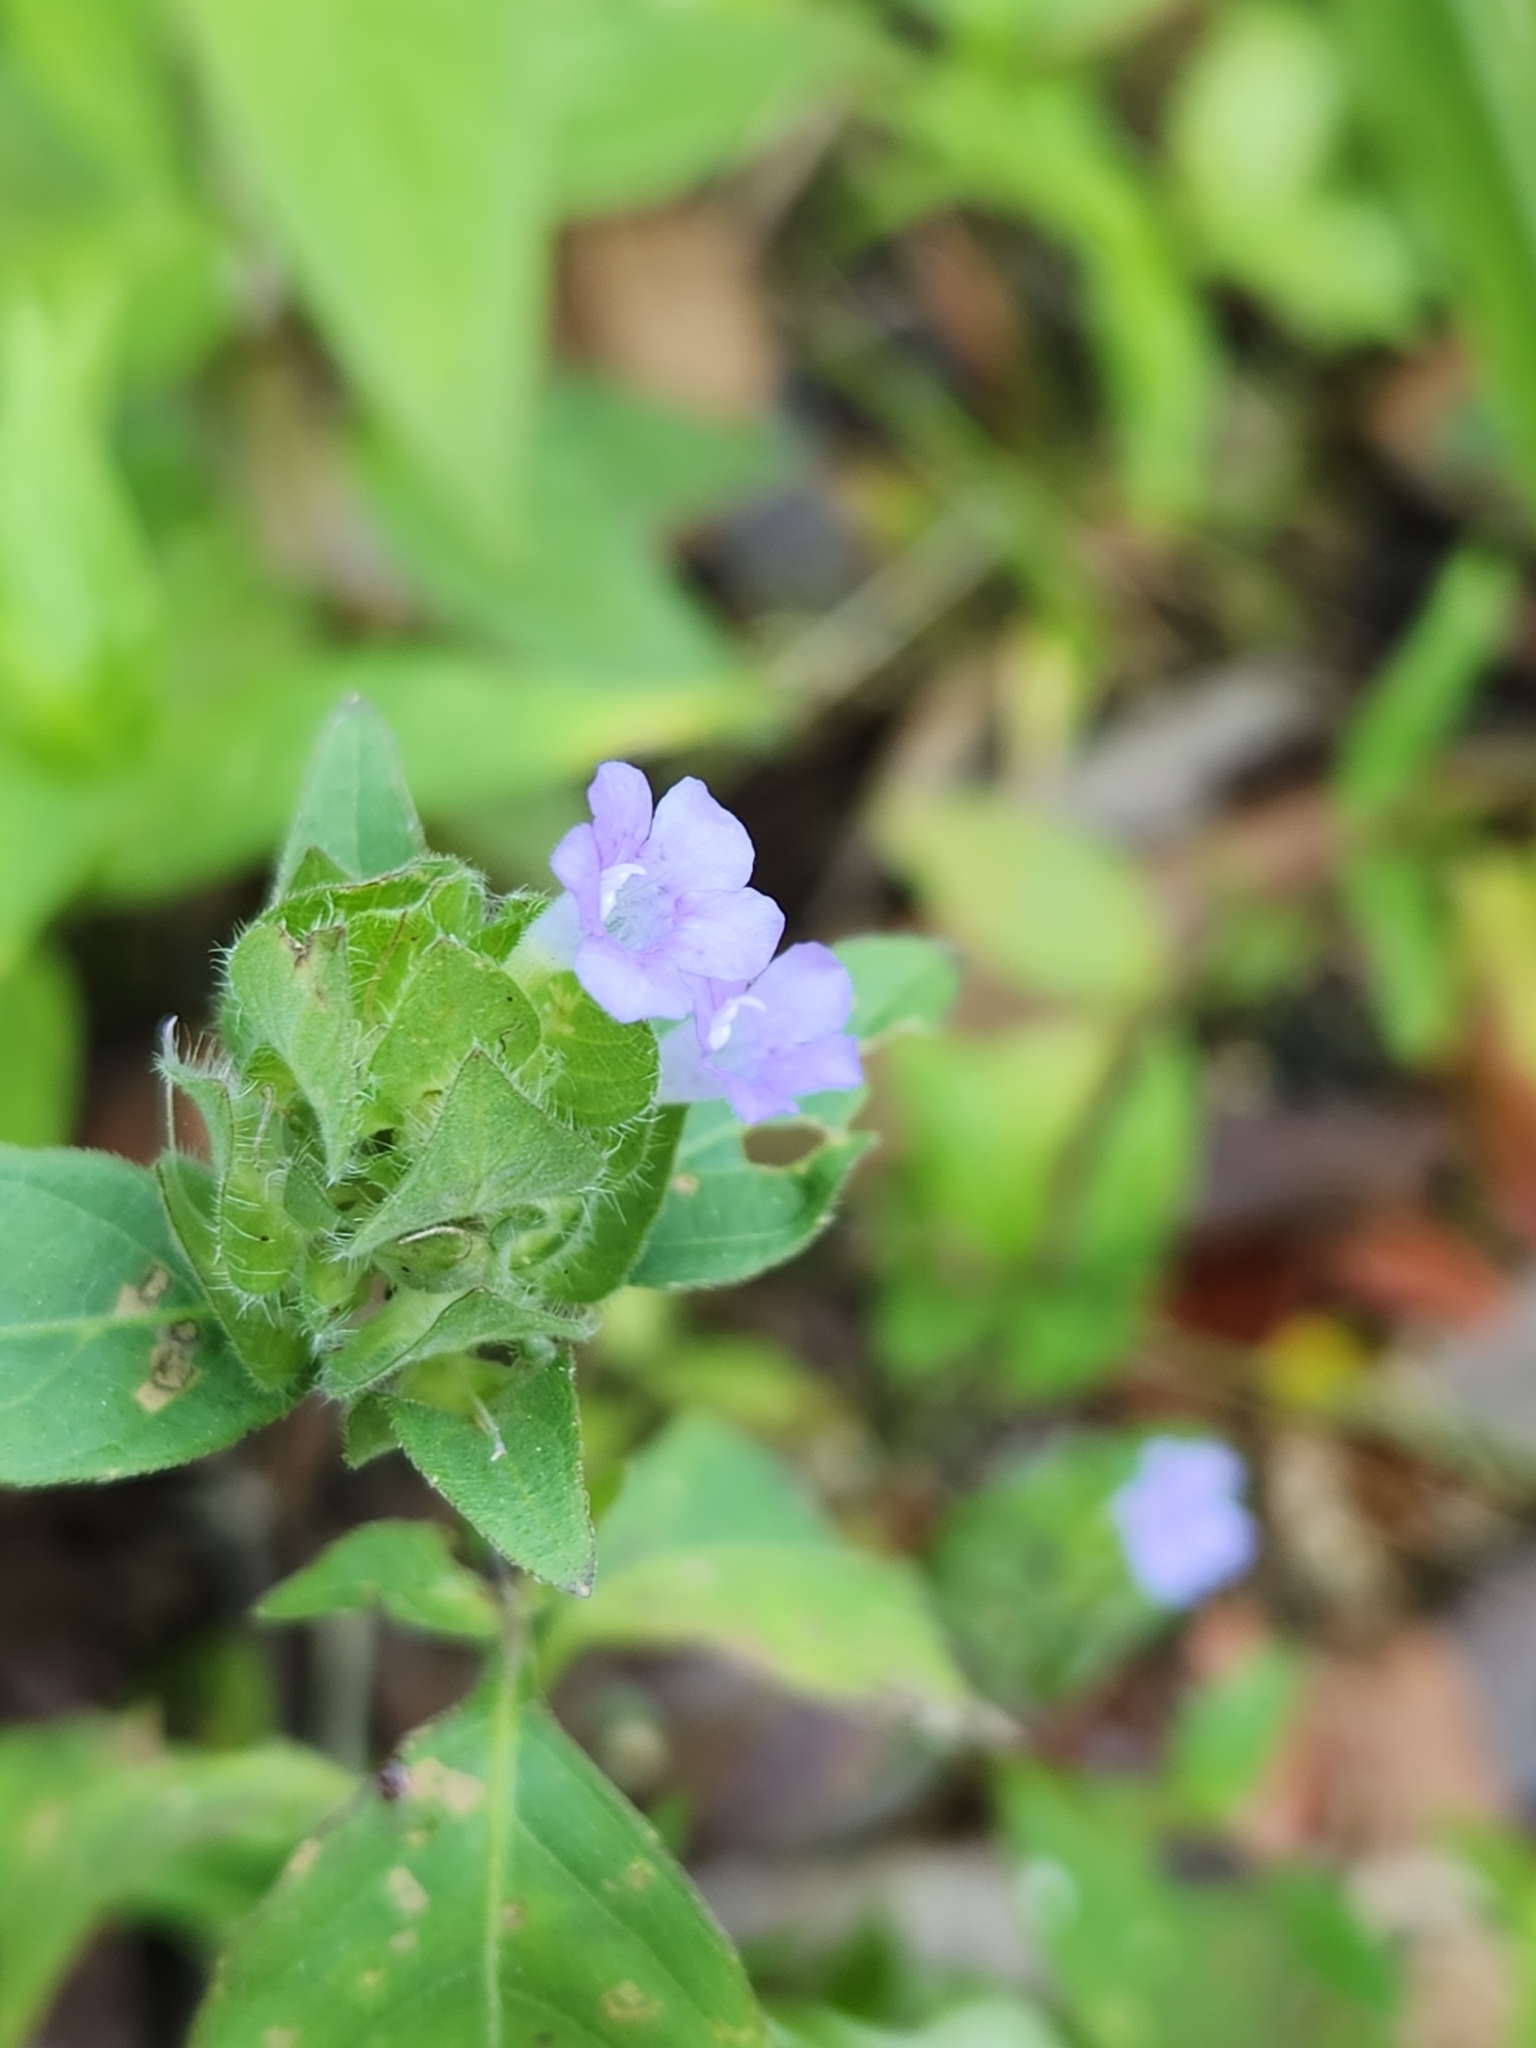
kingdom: Plantae
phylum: Tracheophyta
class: Magnoliopsida
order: Lamiales
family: Acanthaceae
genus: Ruellia
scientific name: Ruellia blechum
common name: Browne's blechum
